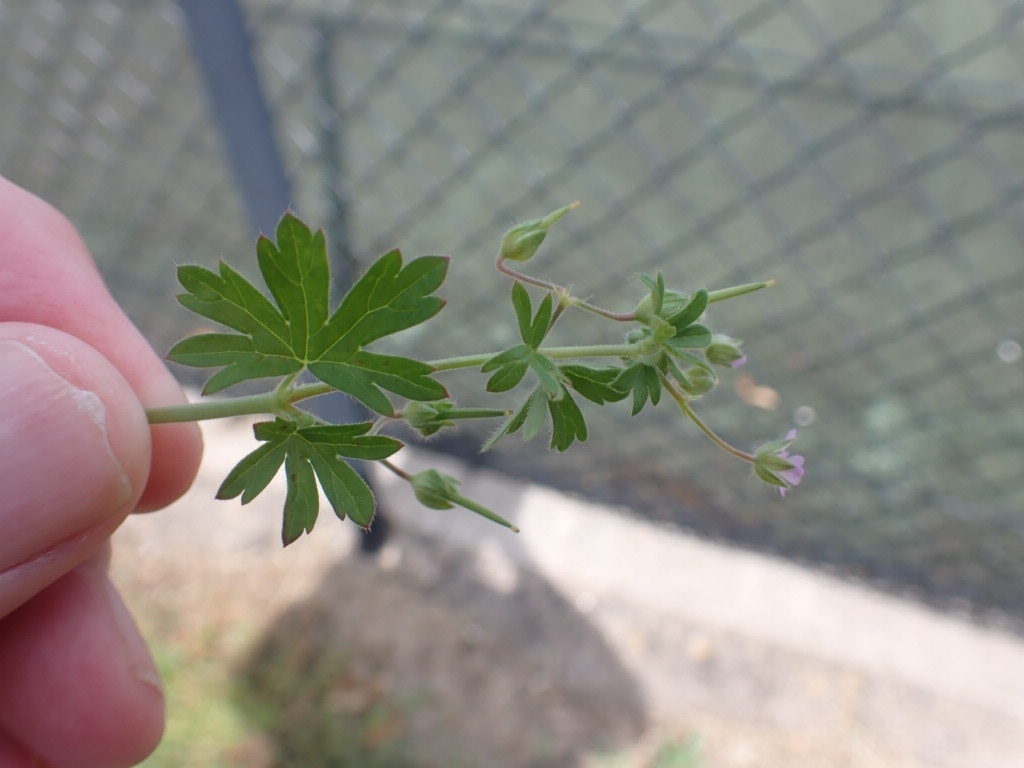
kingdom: Plantae
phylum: Tracheophyta
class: Magnoliopsida
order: Geraniales
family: Geraniaceae
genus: Geranium
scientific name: Geranium pusillum
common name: Small geranium
